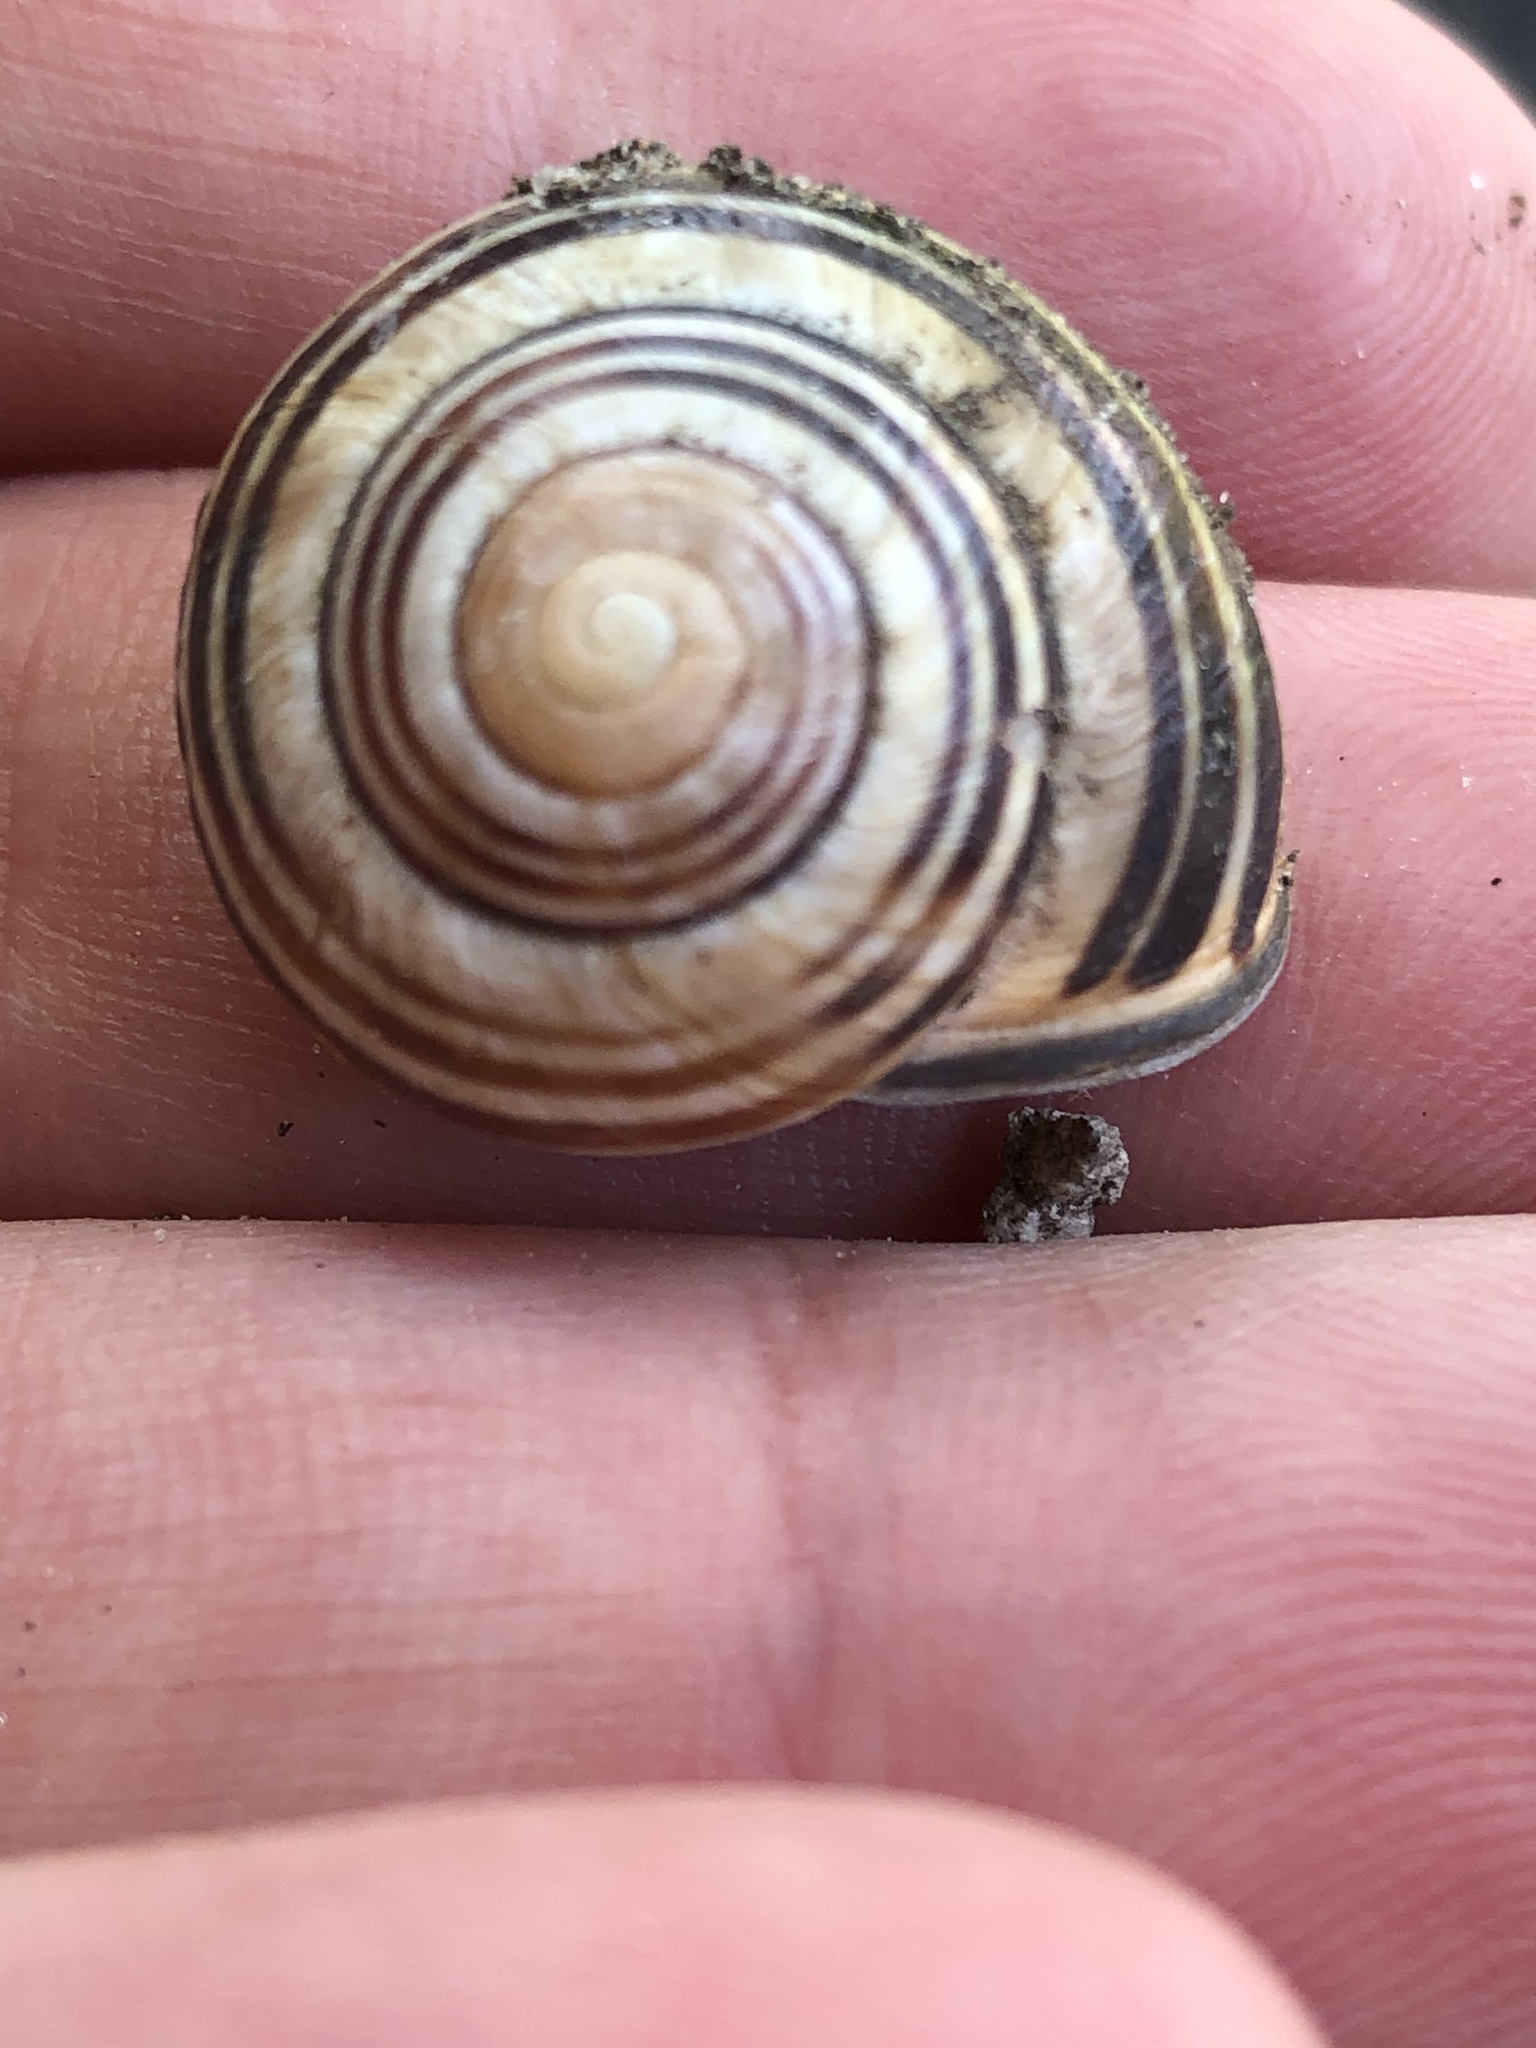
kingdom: Animalia
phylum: Mollusca
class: Gastropoda
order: Stylommatophora
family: Helicidae
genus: Cepaea
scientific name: Cepaea nemoralis
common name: Grovesnail
